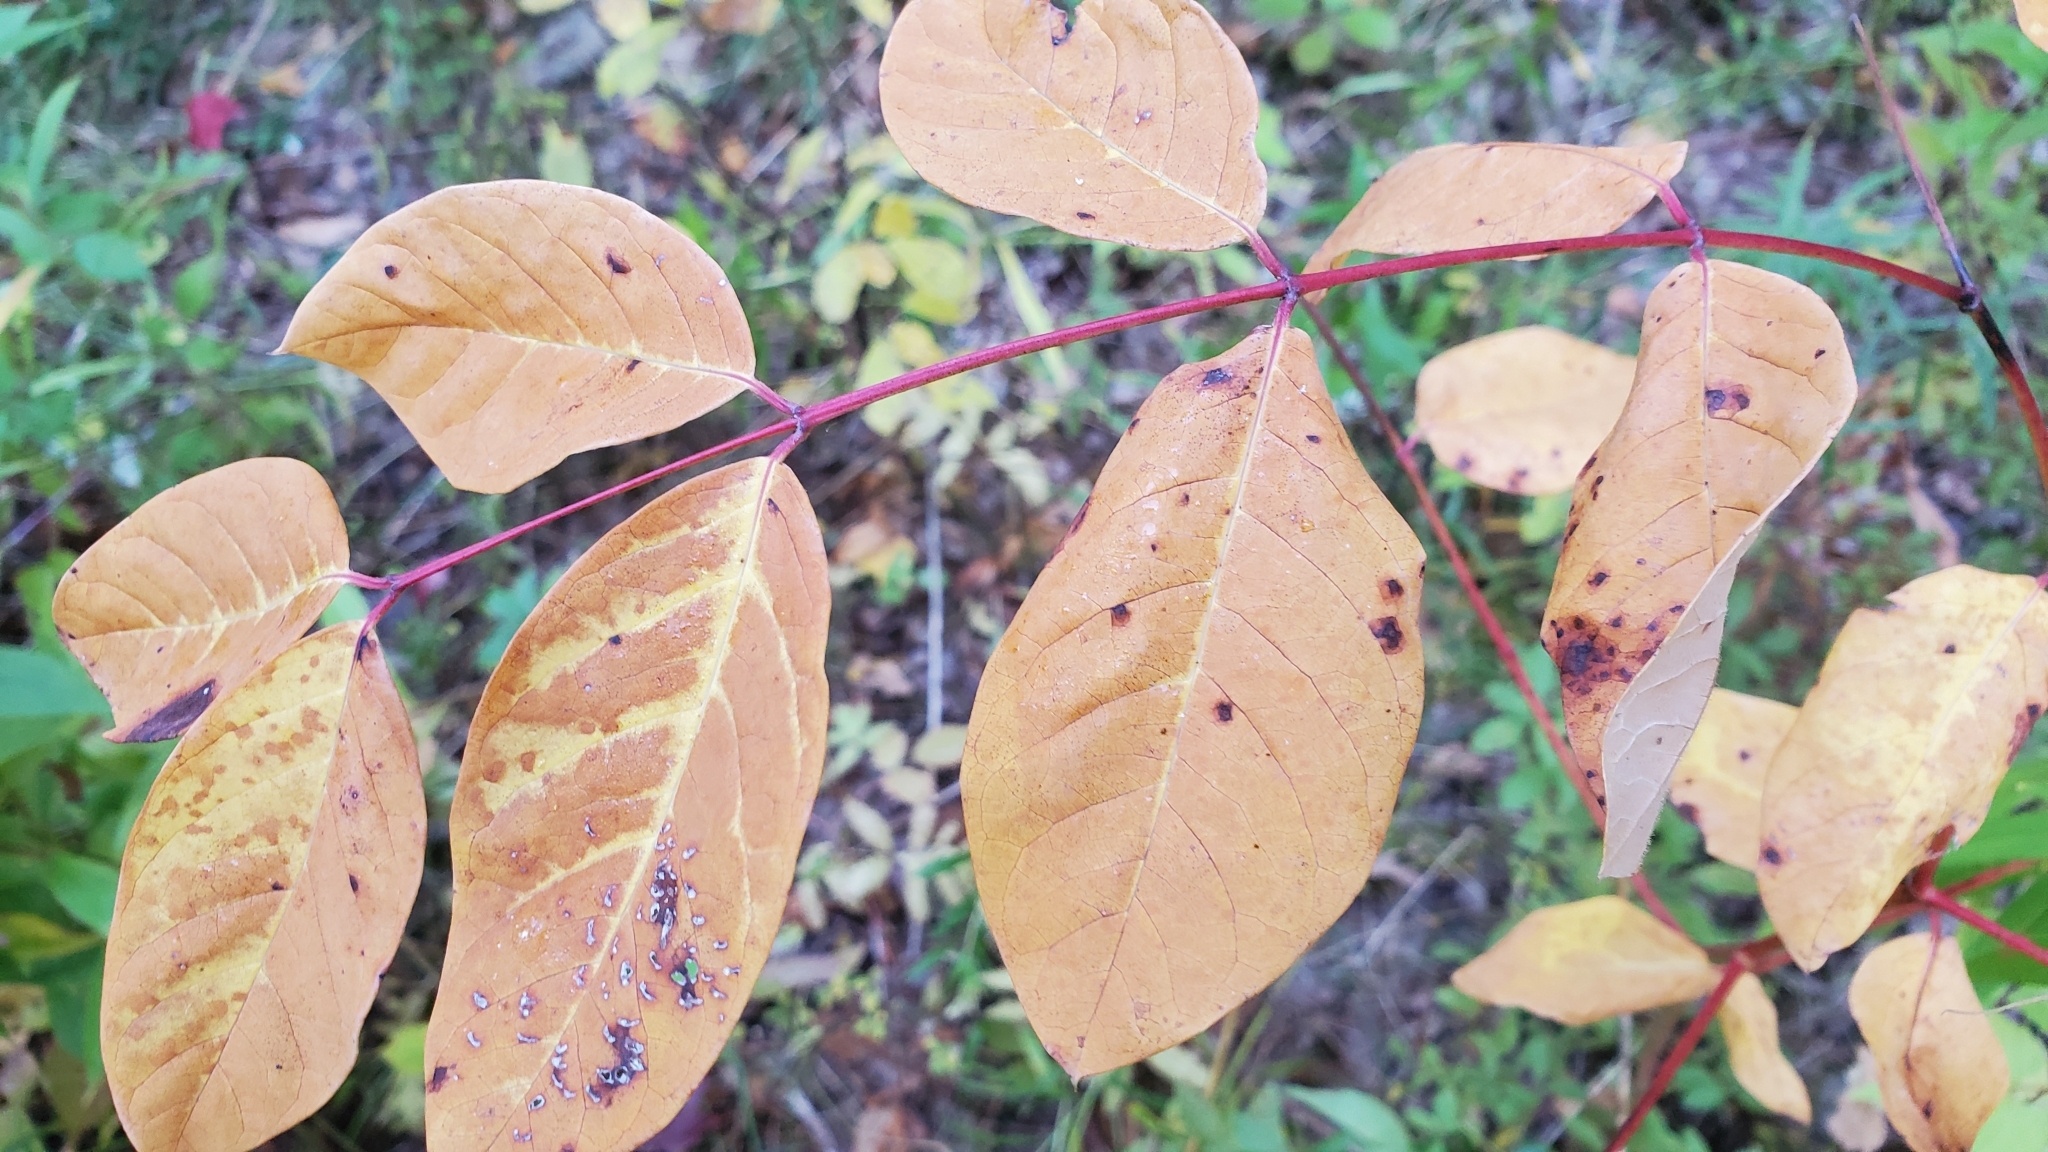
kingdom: Plantae
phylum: Tracheophyta
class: Magnoliopsida
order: Gentianales
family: Apocynaceae
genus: Apocynum
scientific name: Apocynum androsaemifolium
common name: Spreading dogbane
